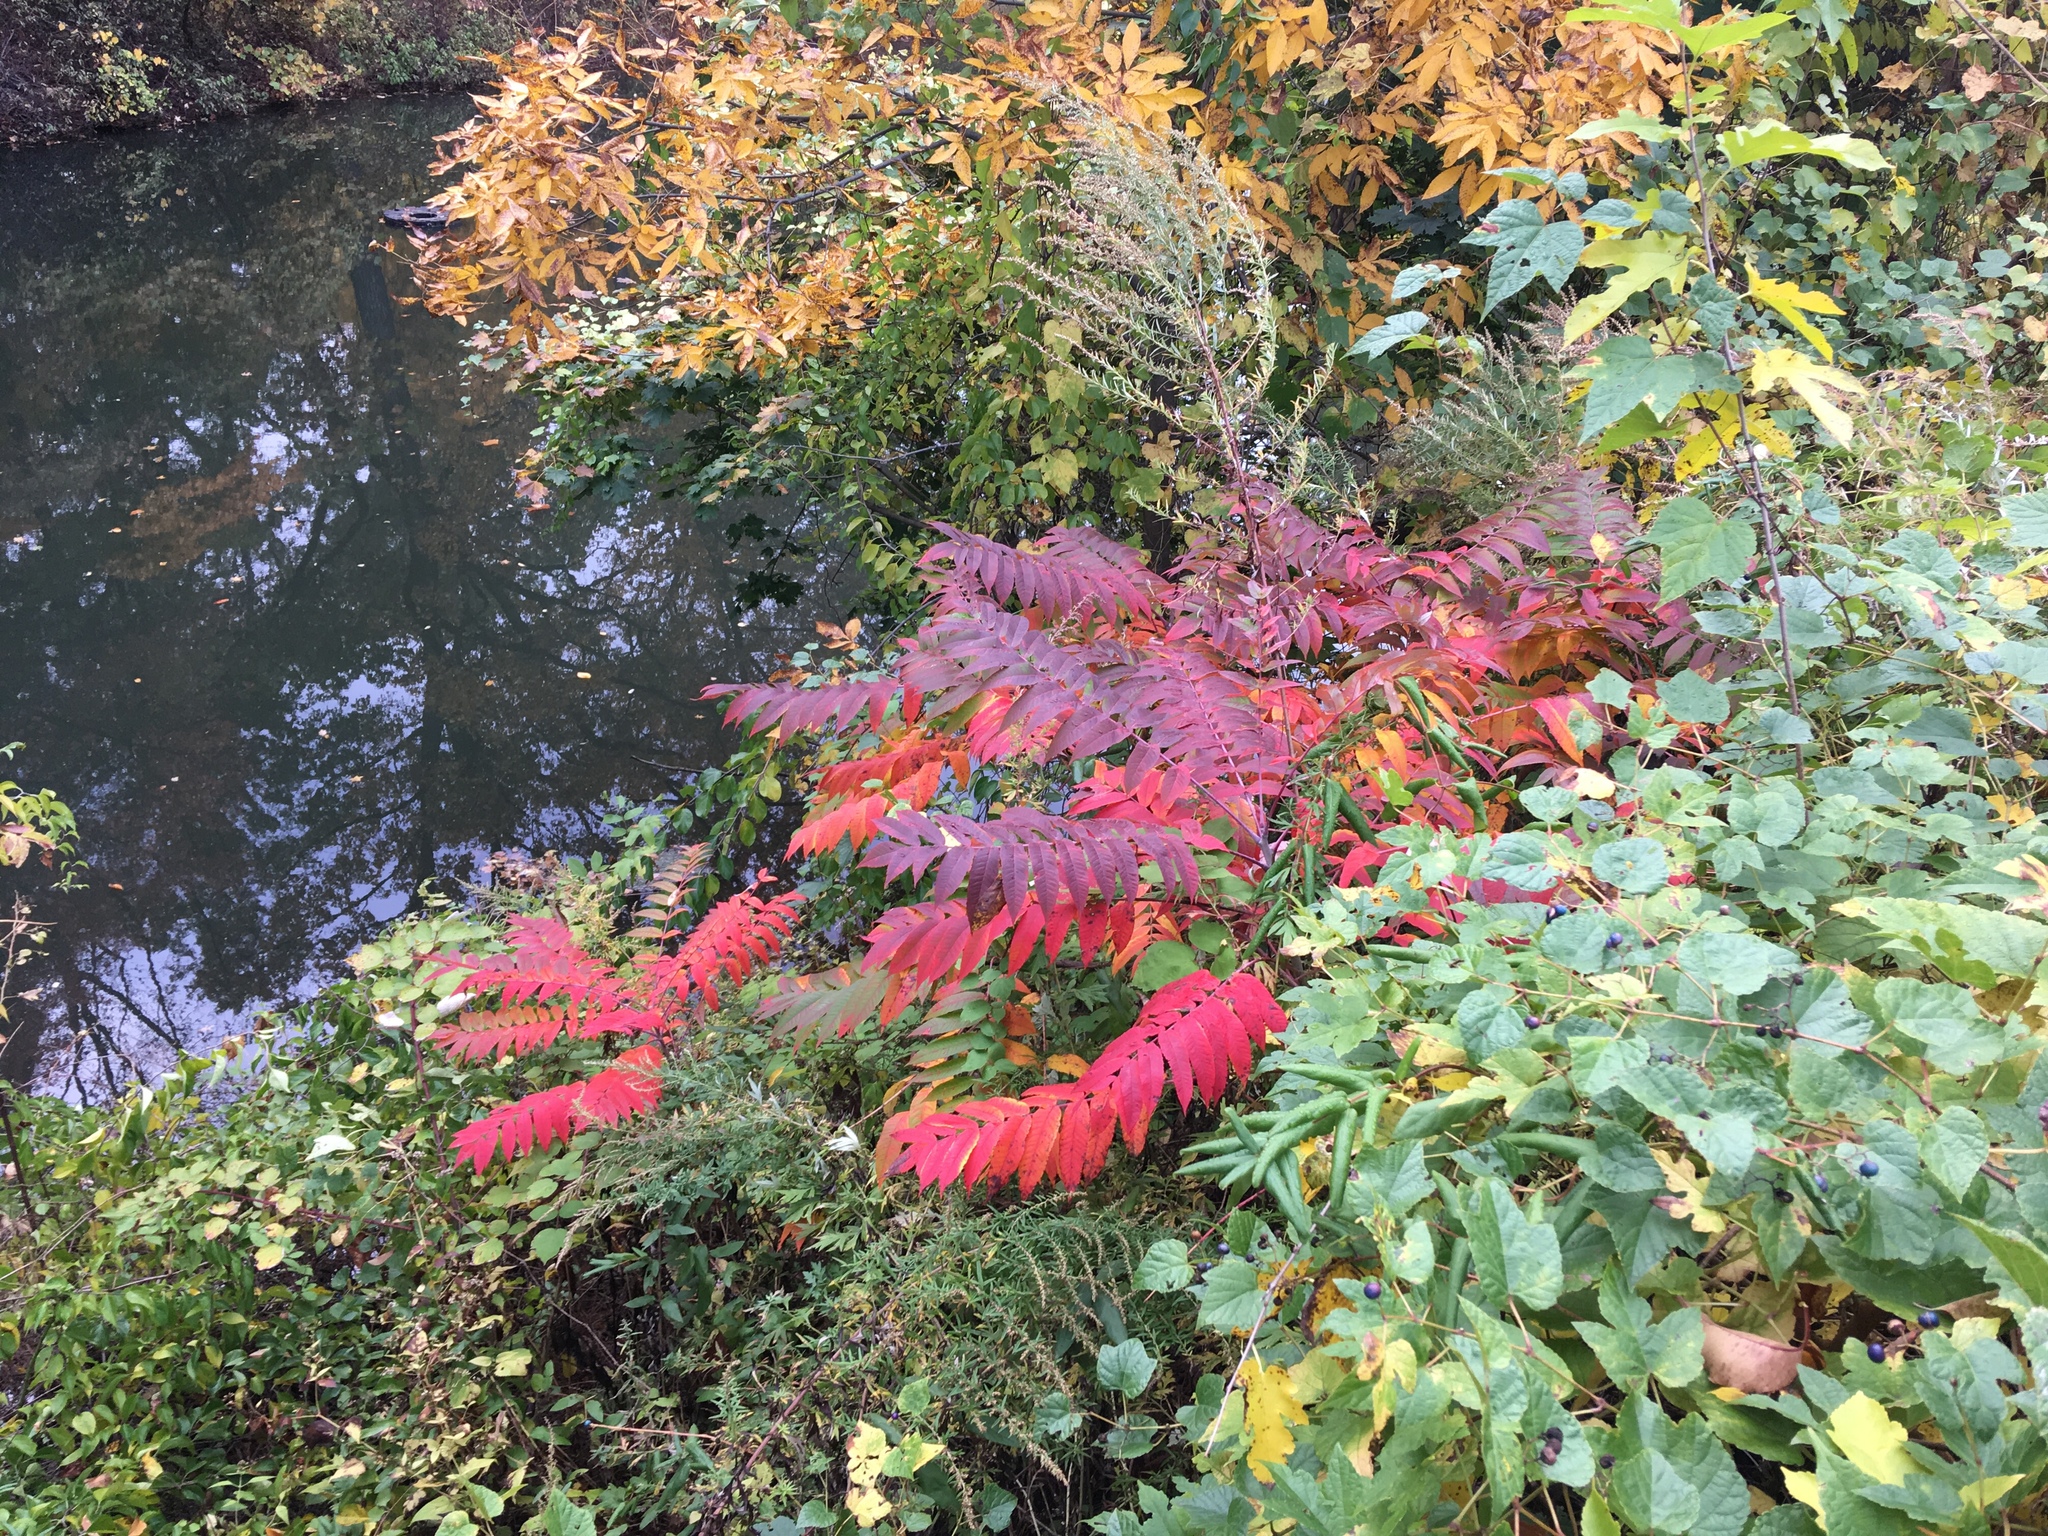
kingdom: Plantae
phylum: Tracheophyta
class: Magnoliopsida
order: Sapindales
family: Anacardiaceae
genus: Rhus
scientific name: Rhus glabra
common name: Scarlet sumac
